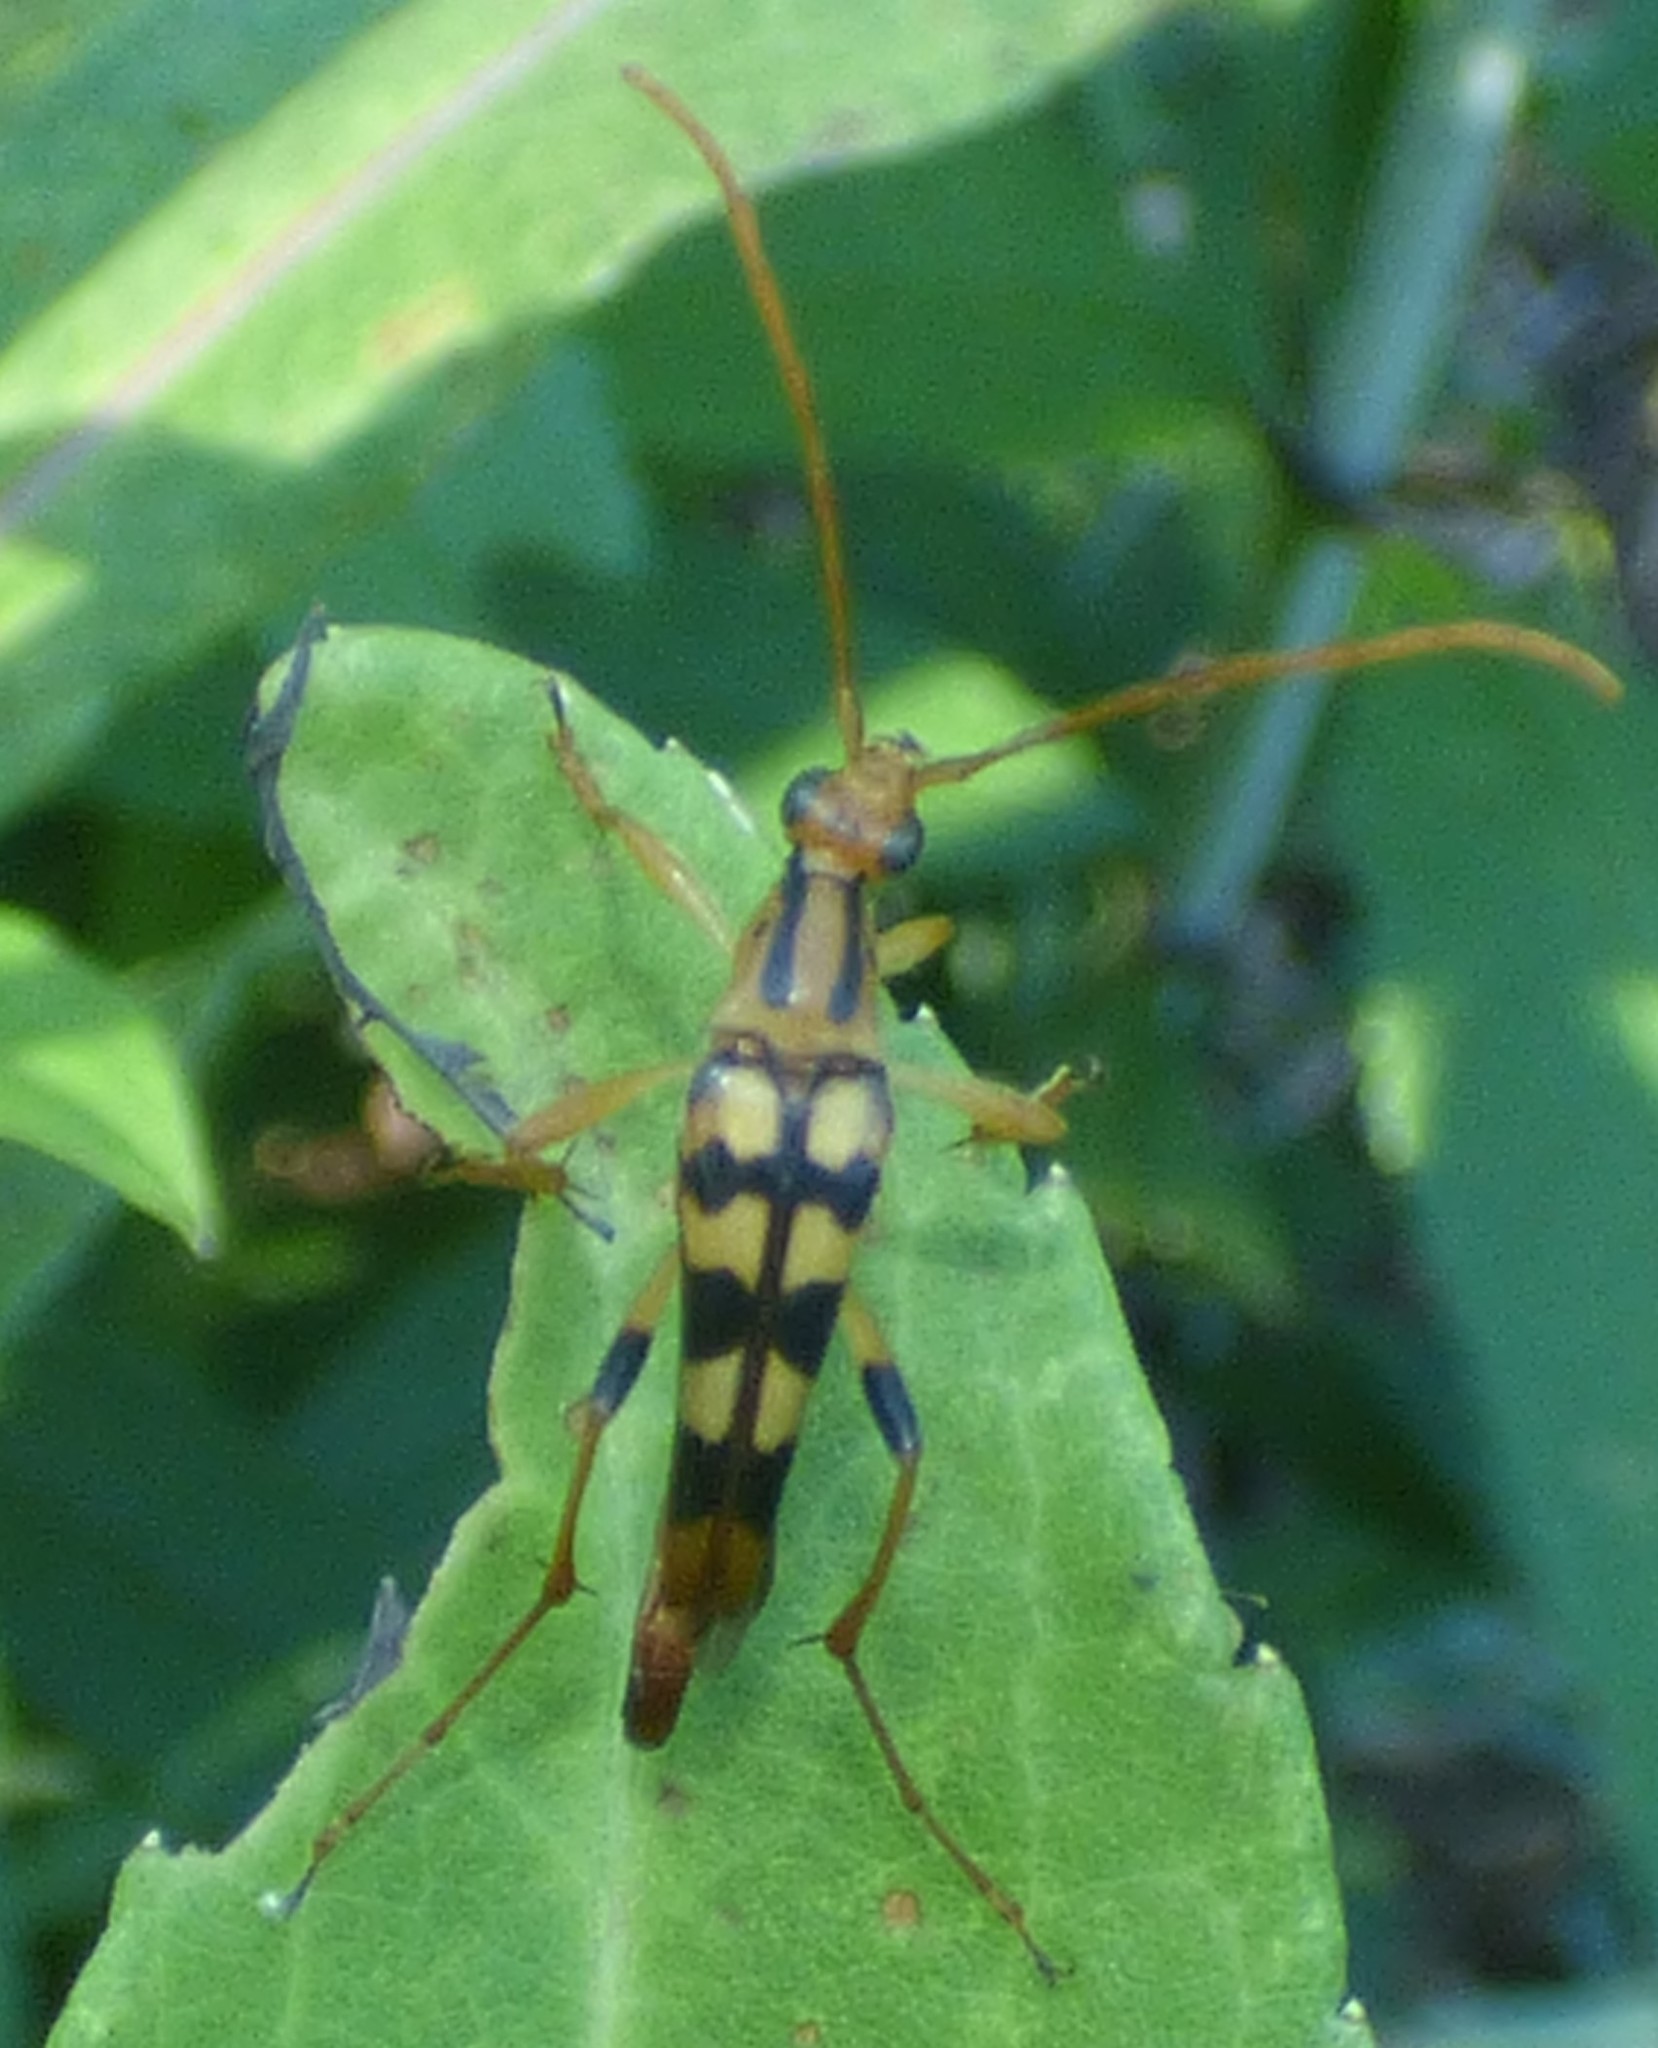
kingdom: Animalia
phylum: Arthropoda
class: Insecta
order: Coleoptera
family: Cerambycidae
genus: Strangalia
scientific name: Strangalia luteicornis
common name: Yellow-horned flower longhorn beetle
